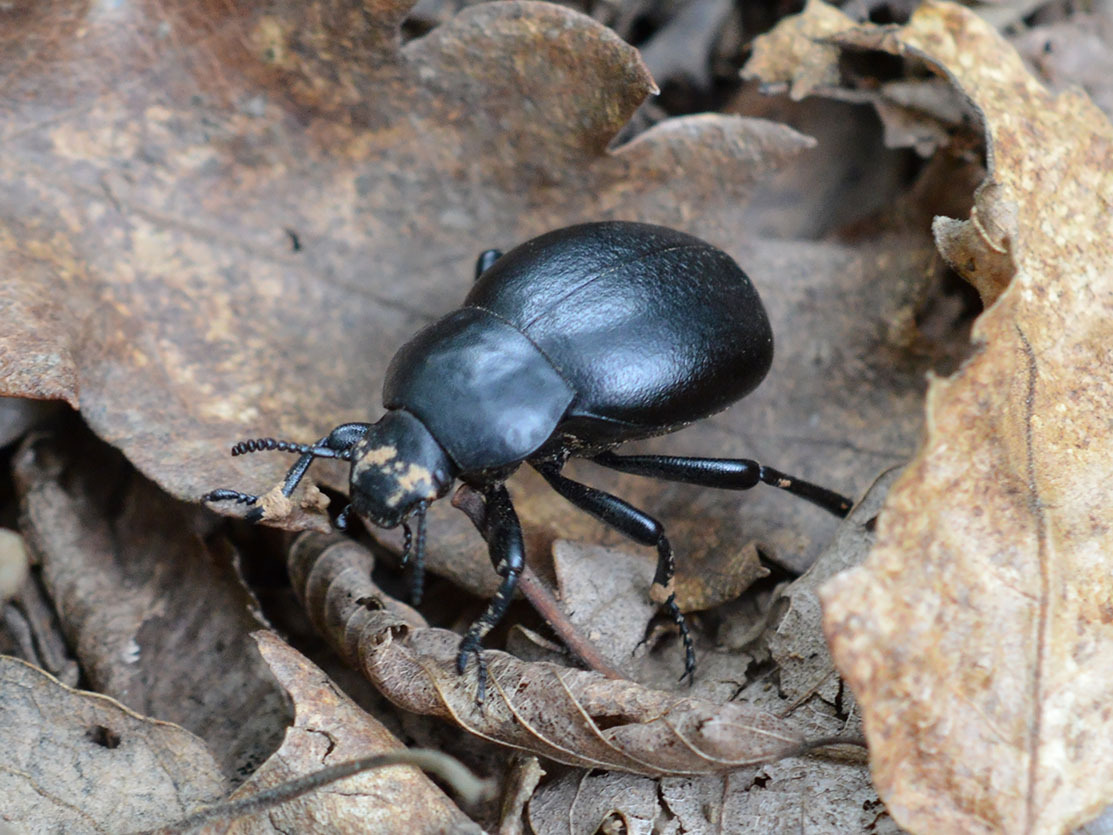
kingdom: Animalia
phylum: Arthropoda
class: Insecta
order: Coleoptera
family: Tenebrionidae
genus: Gnaptor
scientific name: Gnaptor spinimanus
